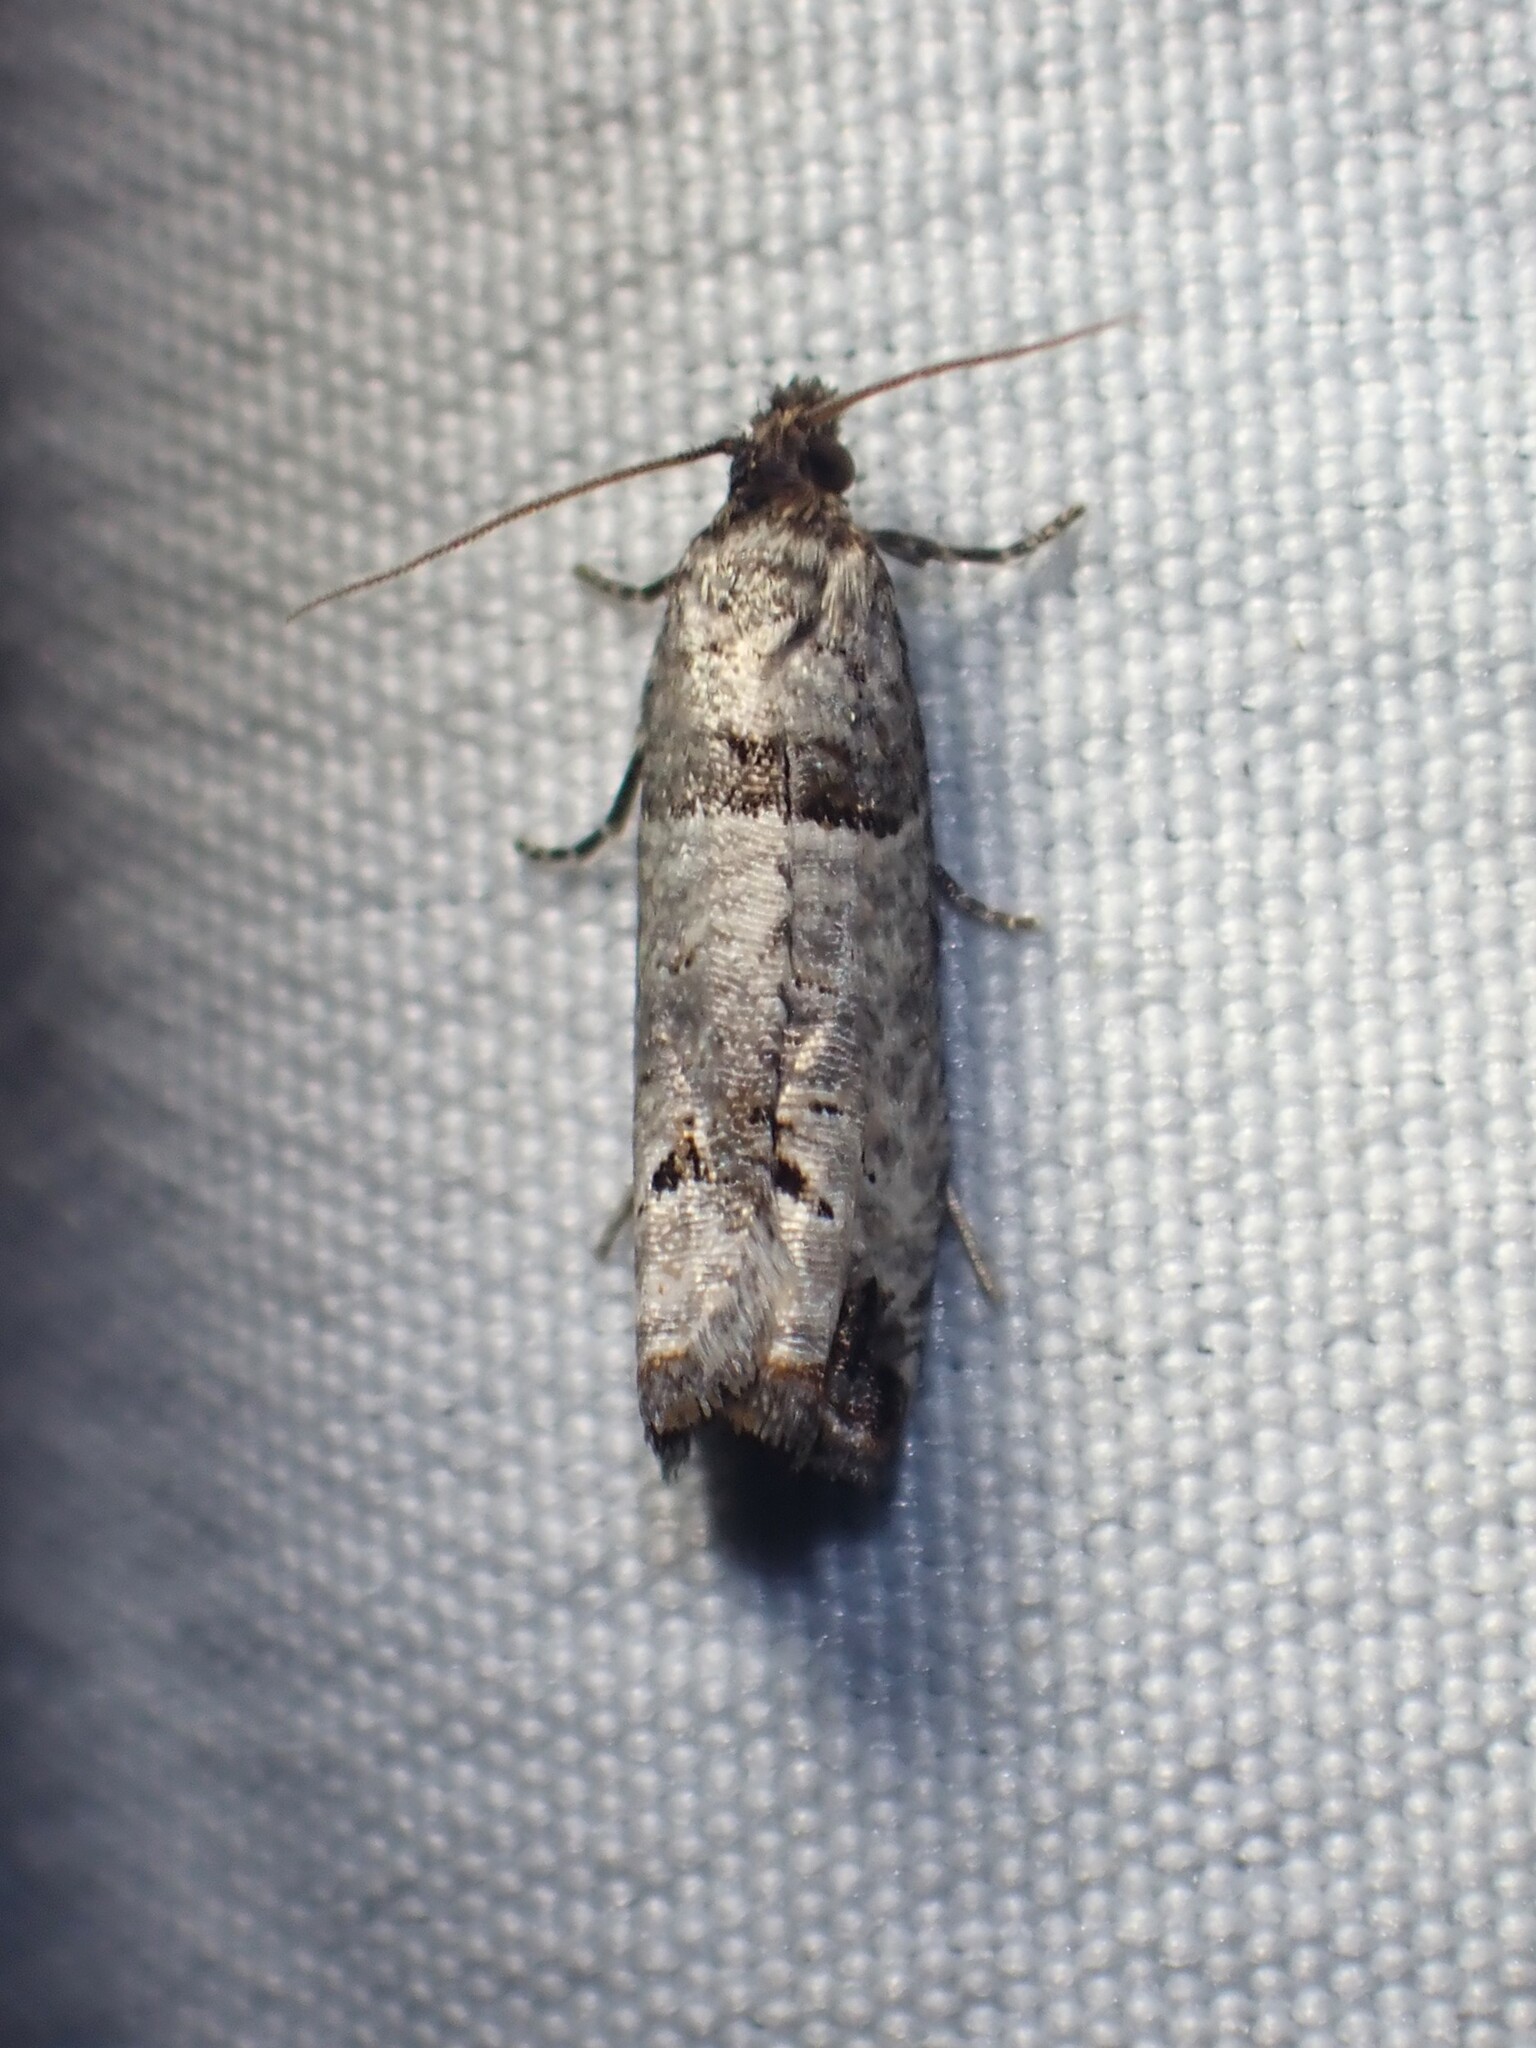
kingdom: Animalia
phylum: Arthropoda
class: Insecta
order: Lepidoptera
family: Tortricidae
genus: Notocelia
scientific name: Notocelia culminana
